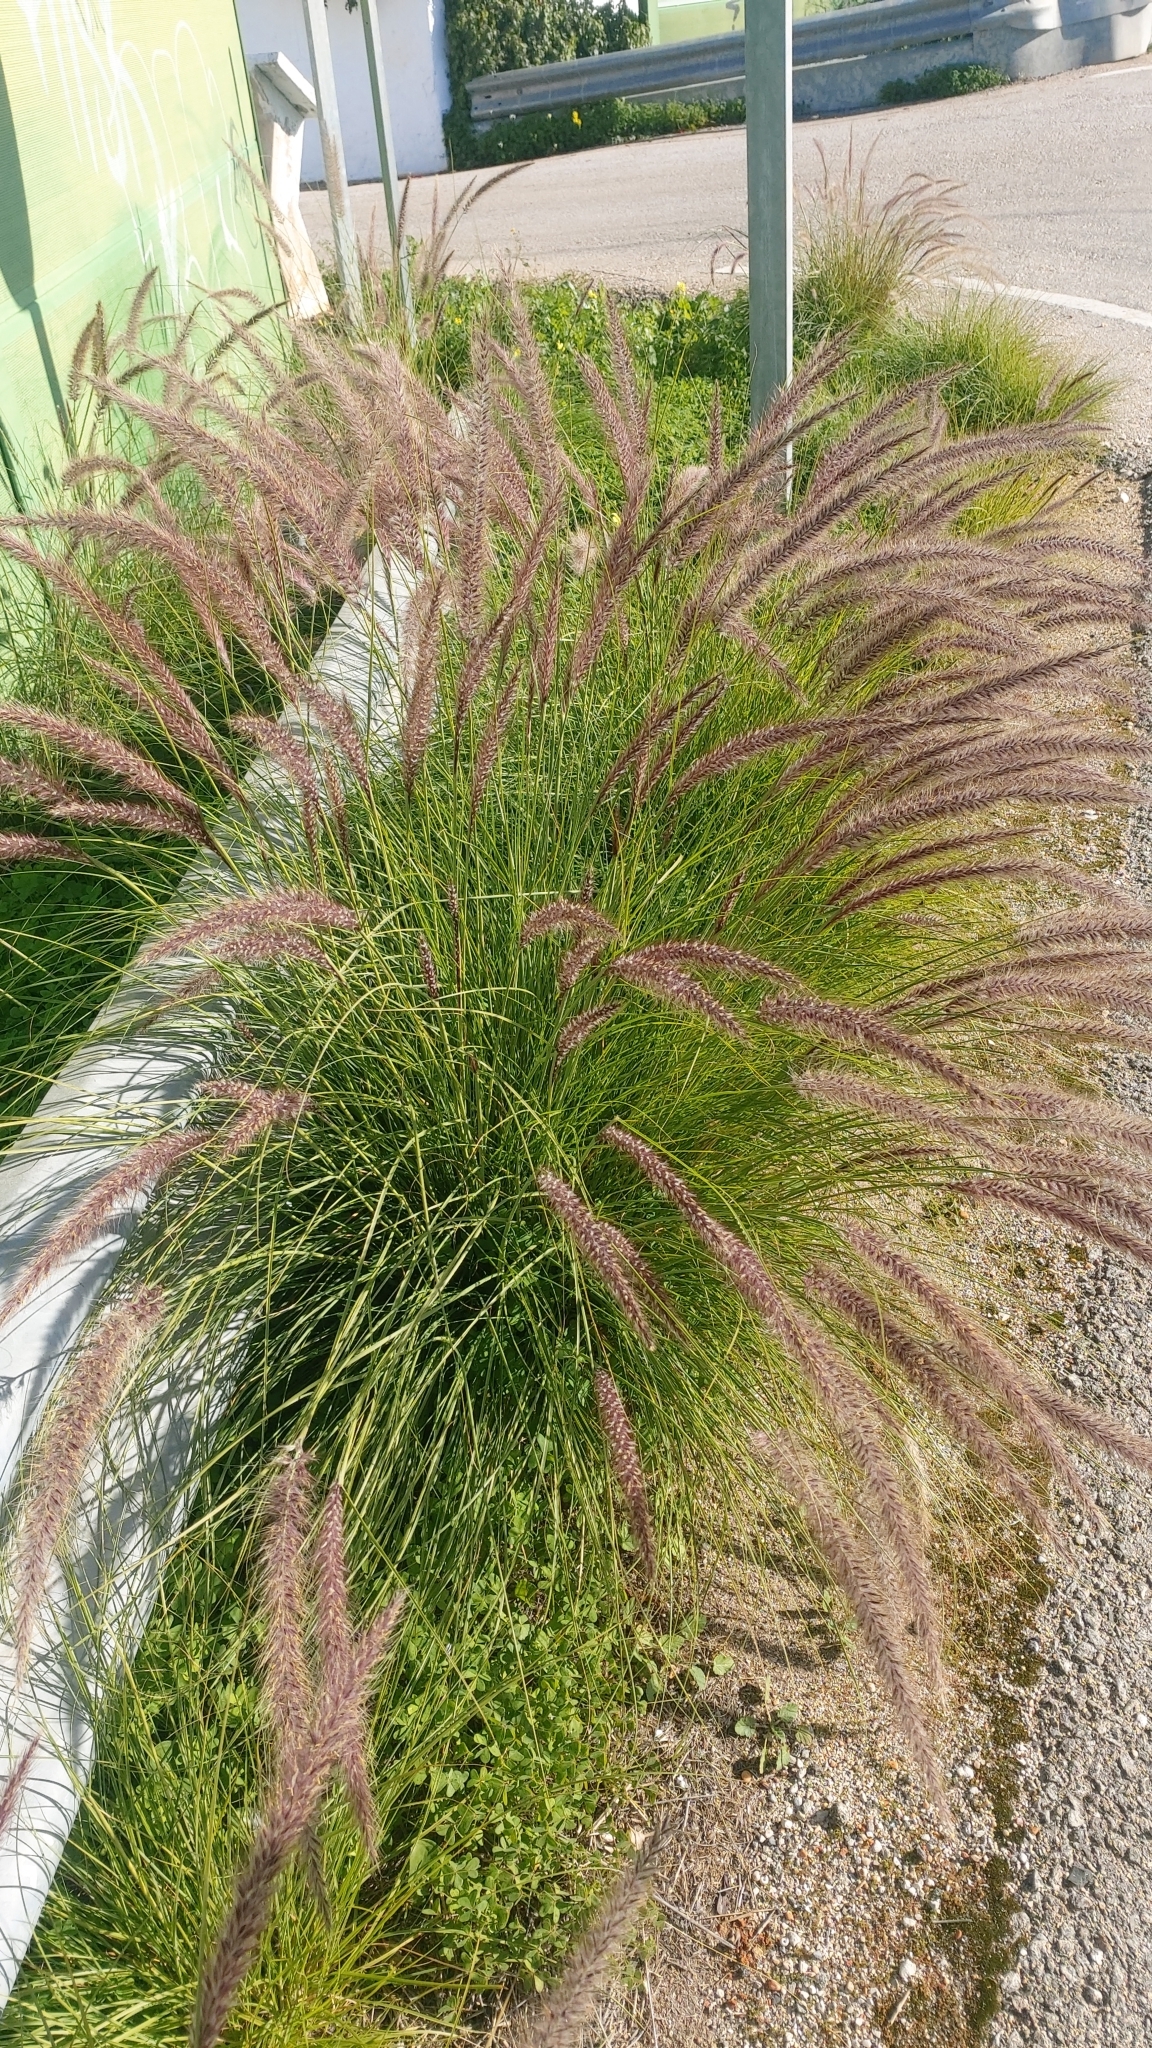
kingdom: Plantae
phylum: Tracheophyta
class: Liliopsida
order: Poales
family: Poaceae
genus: Cenchrus
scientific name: Cenchrus setaceus
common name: Crimson fountaingrass
